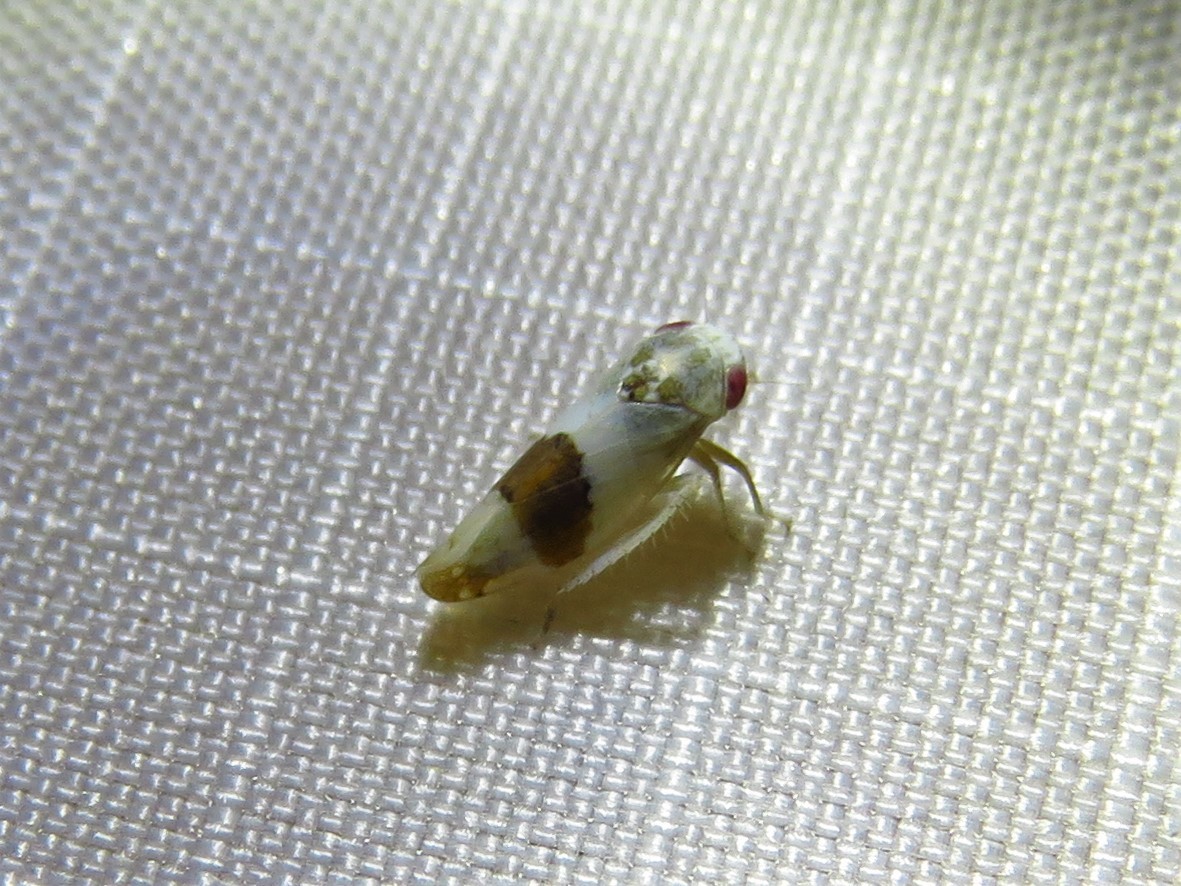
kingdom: Animalia
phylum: Arthropoda
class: Insecta
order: Hemiptera
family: Cicadellidae
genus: Norvellina
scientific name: Norvellina seminuda
